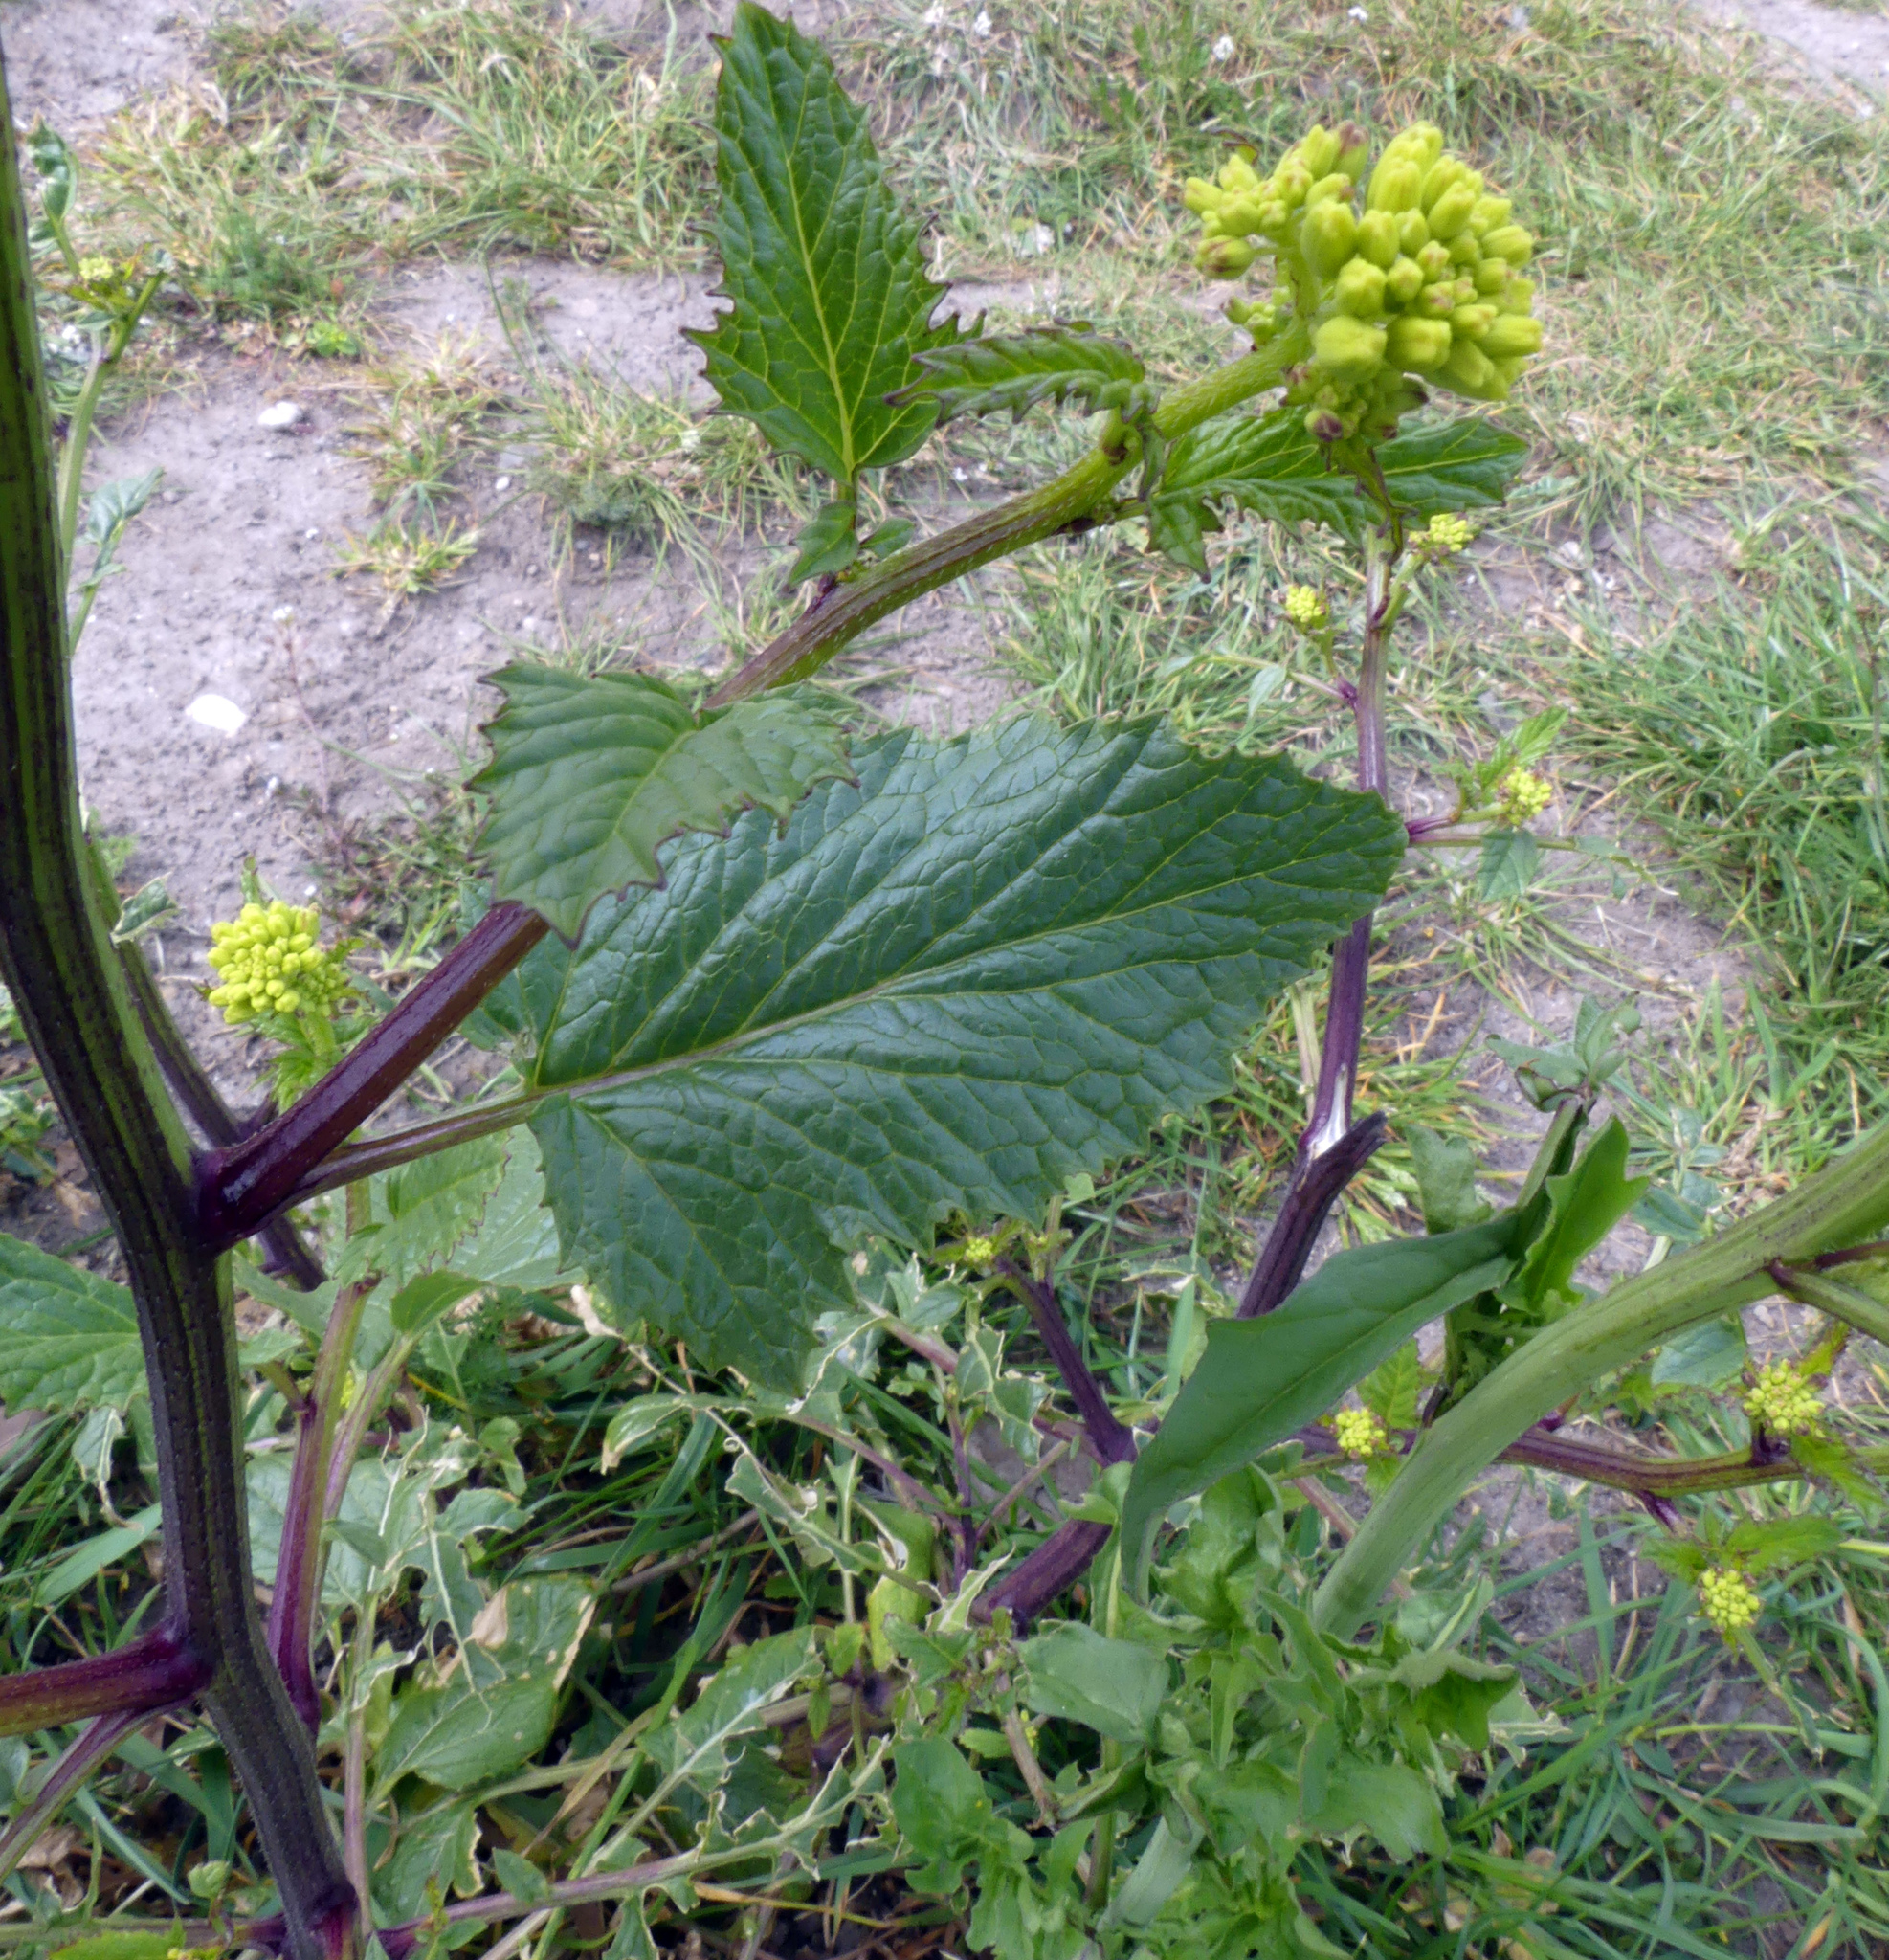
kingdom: Plantae
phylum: Tracheophyta
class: Magnoliopsida
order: Brassicales
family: Brassicaceae
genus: Sinapis
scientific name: Sinapis arvensis
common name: Charlock
